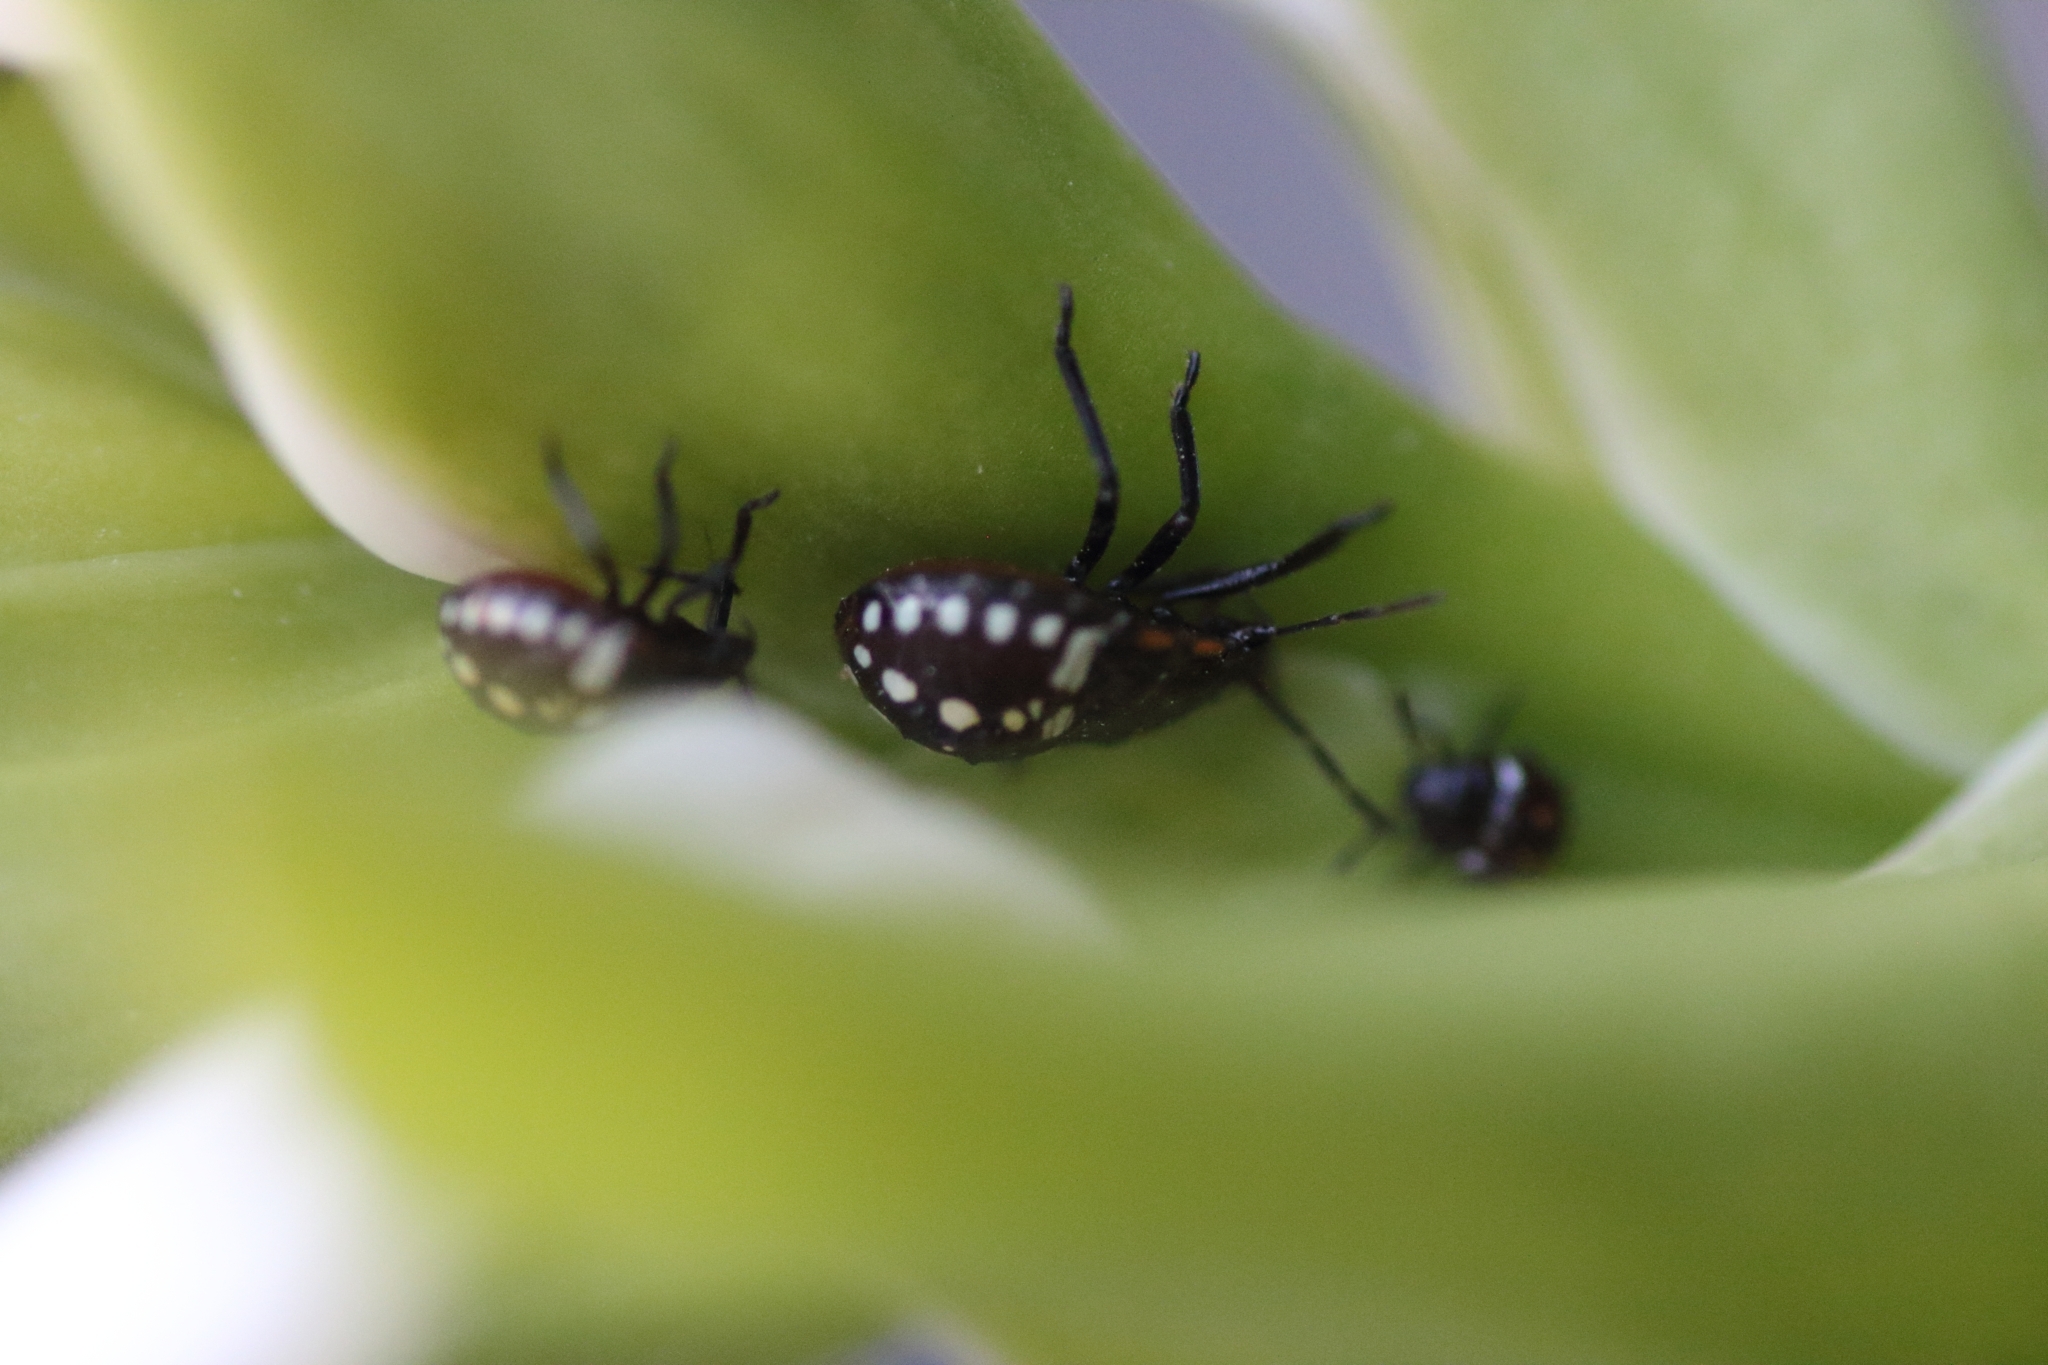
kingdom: Animalia
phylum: Arthropoda
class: Insecta
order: Hemiptera
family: Pentatomidae
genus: Nezara
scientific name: Nezara viridula
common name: Southern green stink bug
